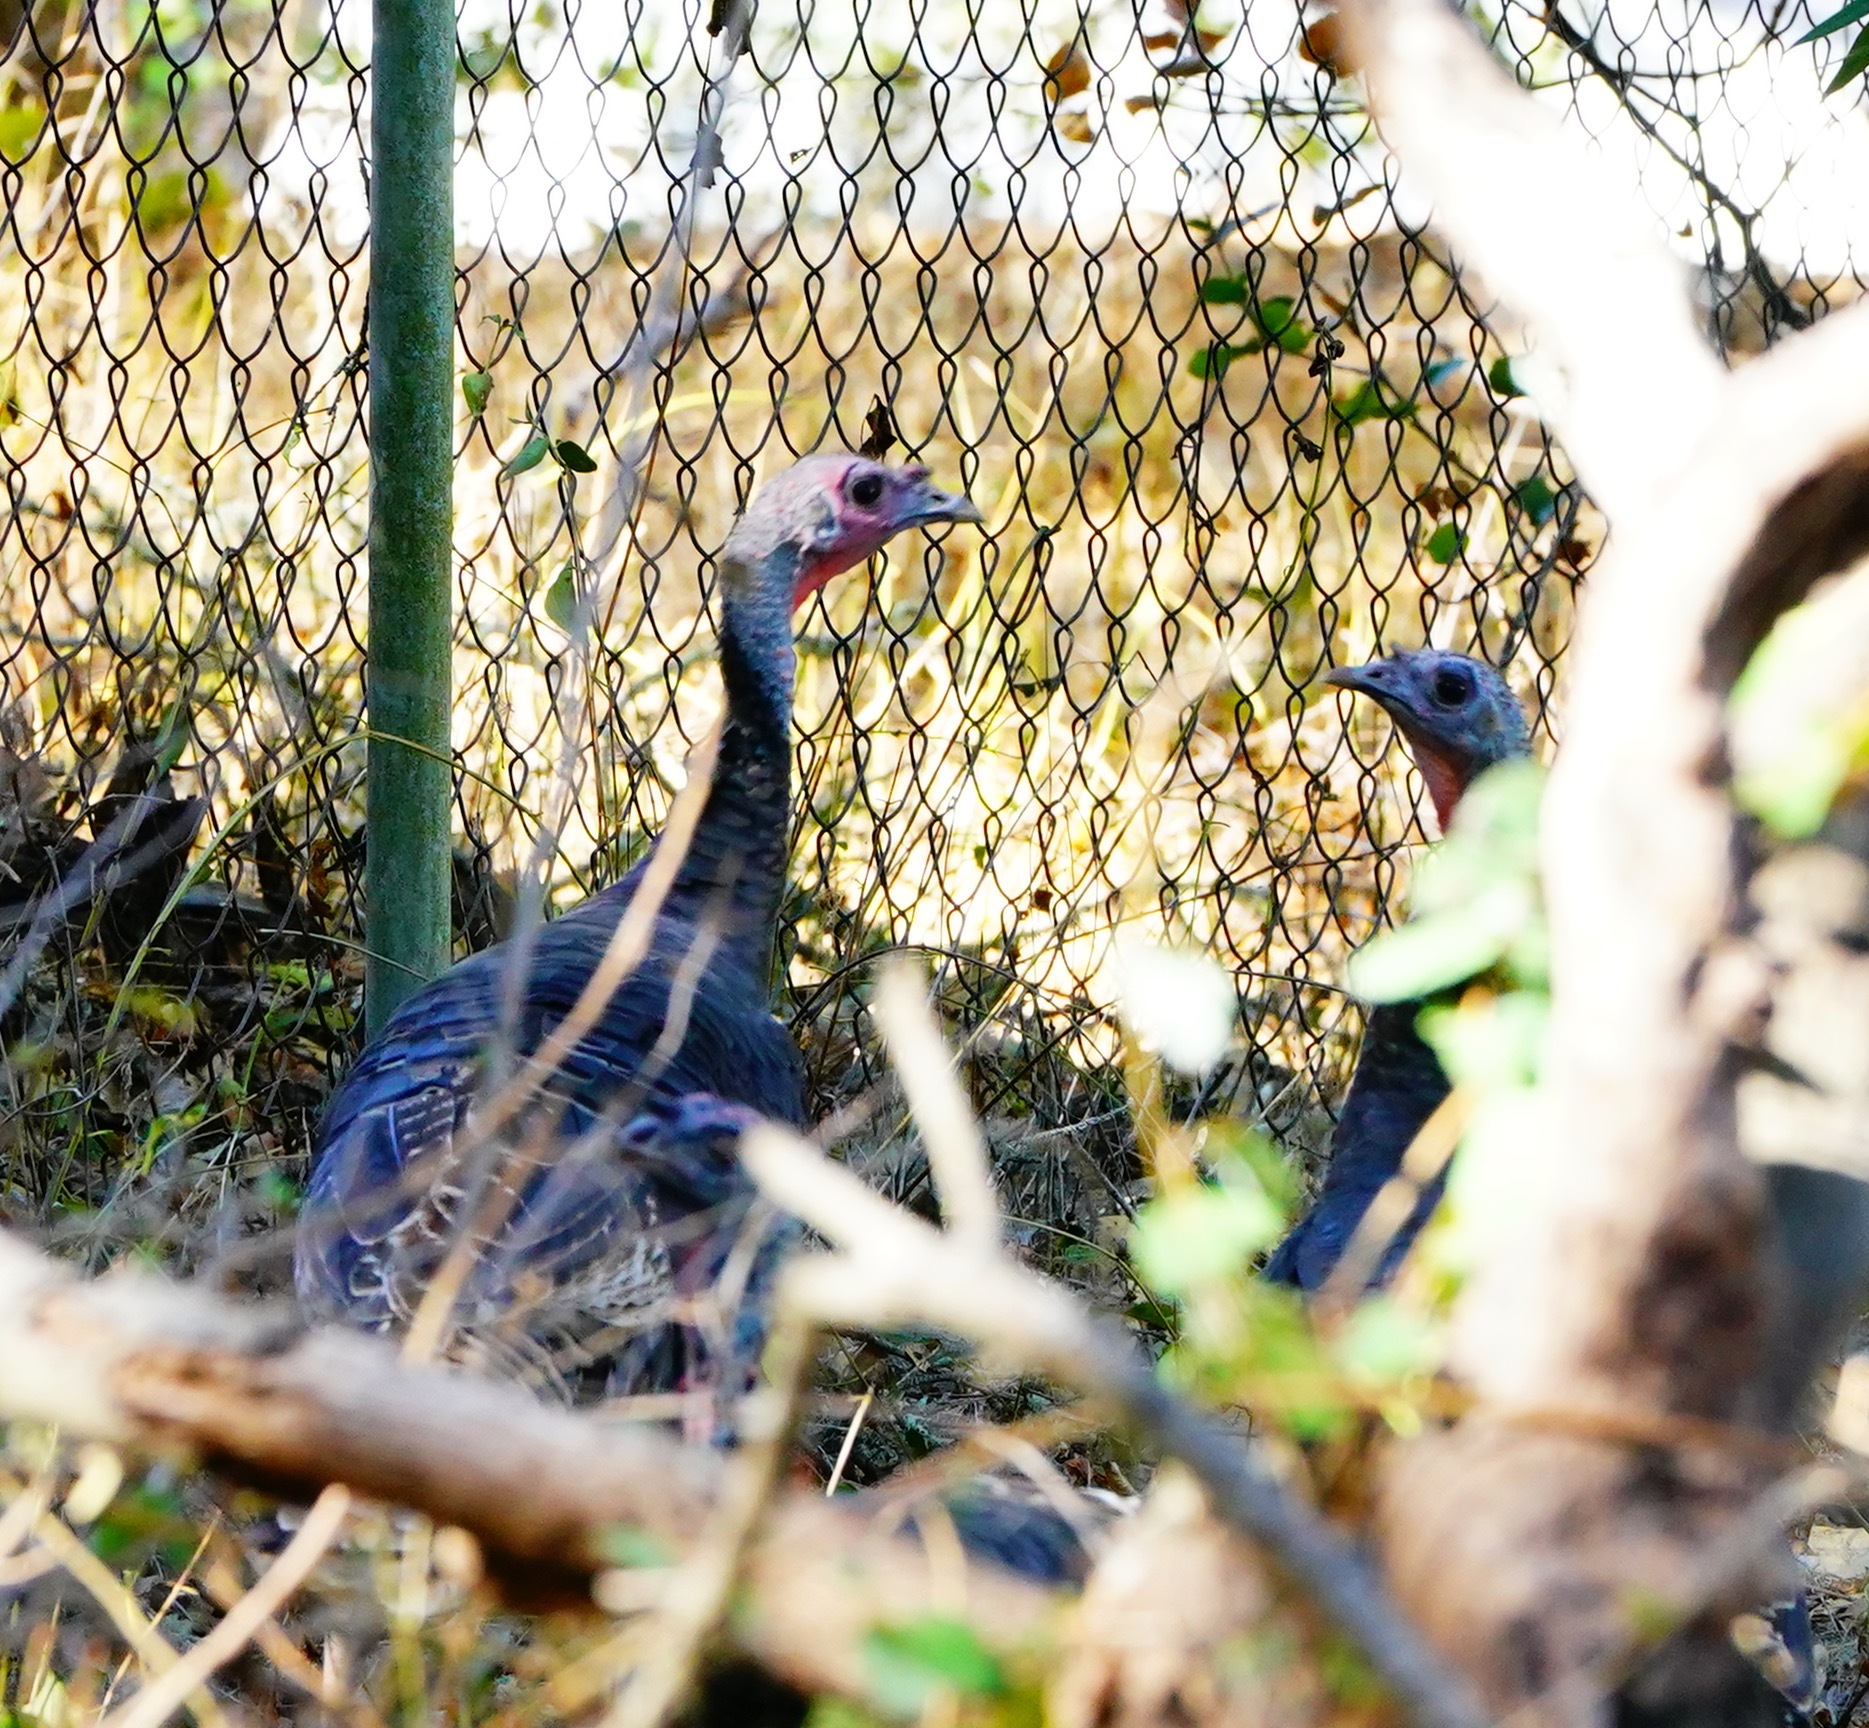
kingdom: Animalia
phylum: Chordata
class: Aves
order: Galliformes
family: Phasianidae
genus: Meleagris
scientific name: Meleagris gallopavo
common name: Wild turkey
